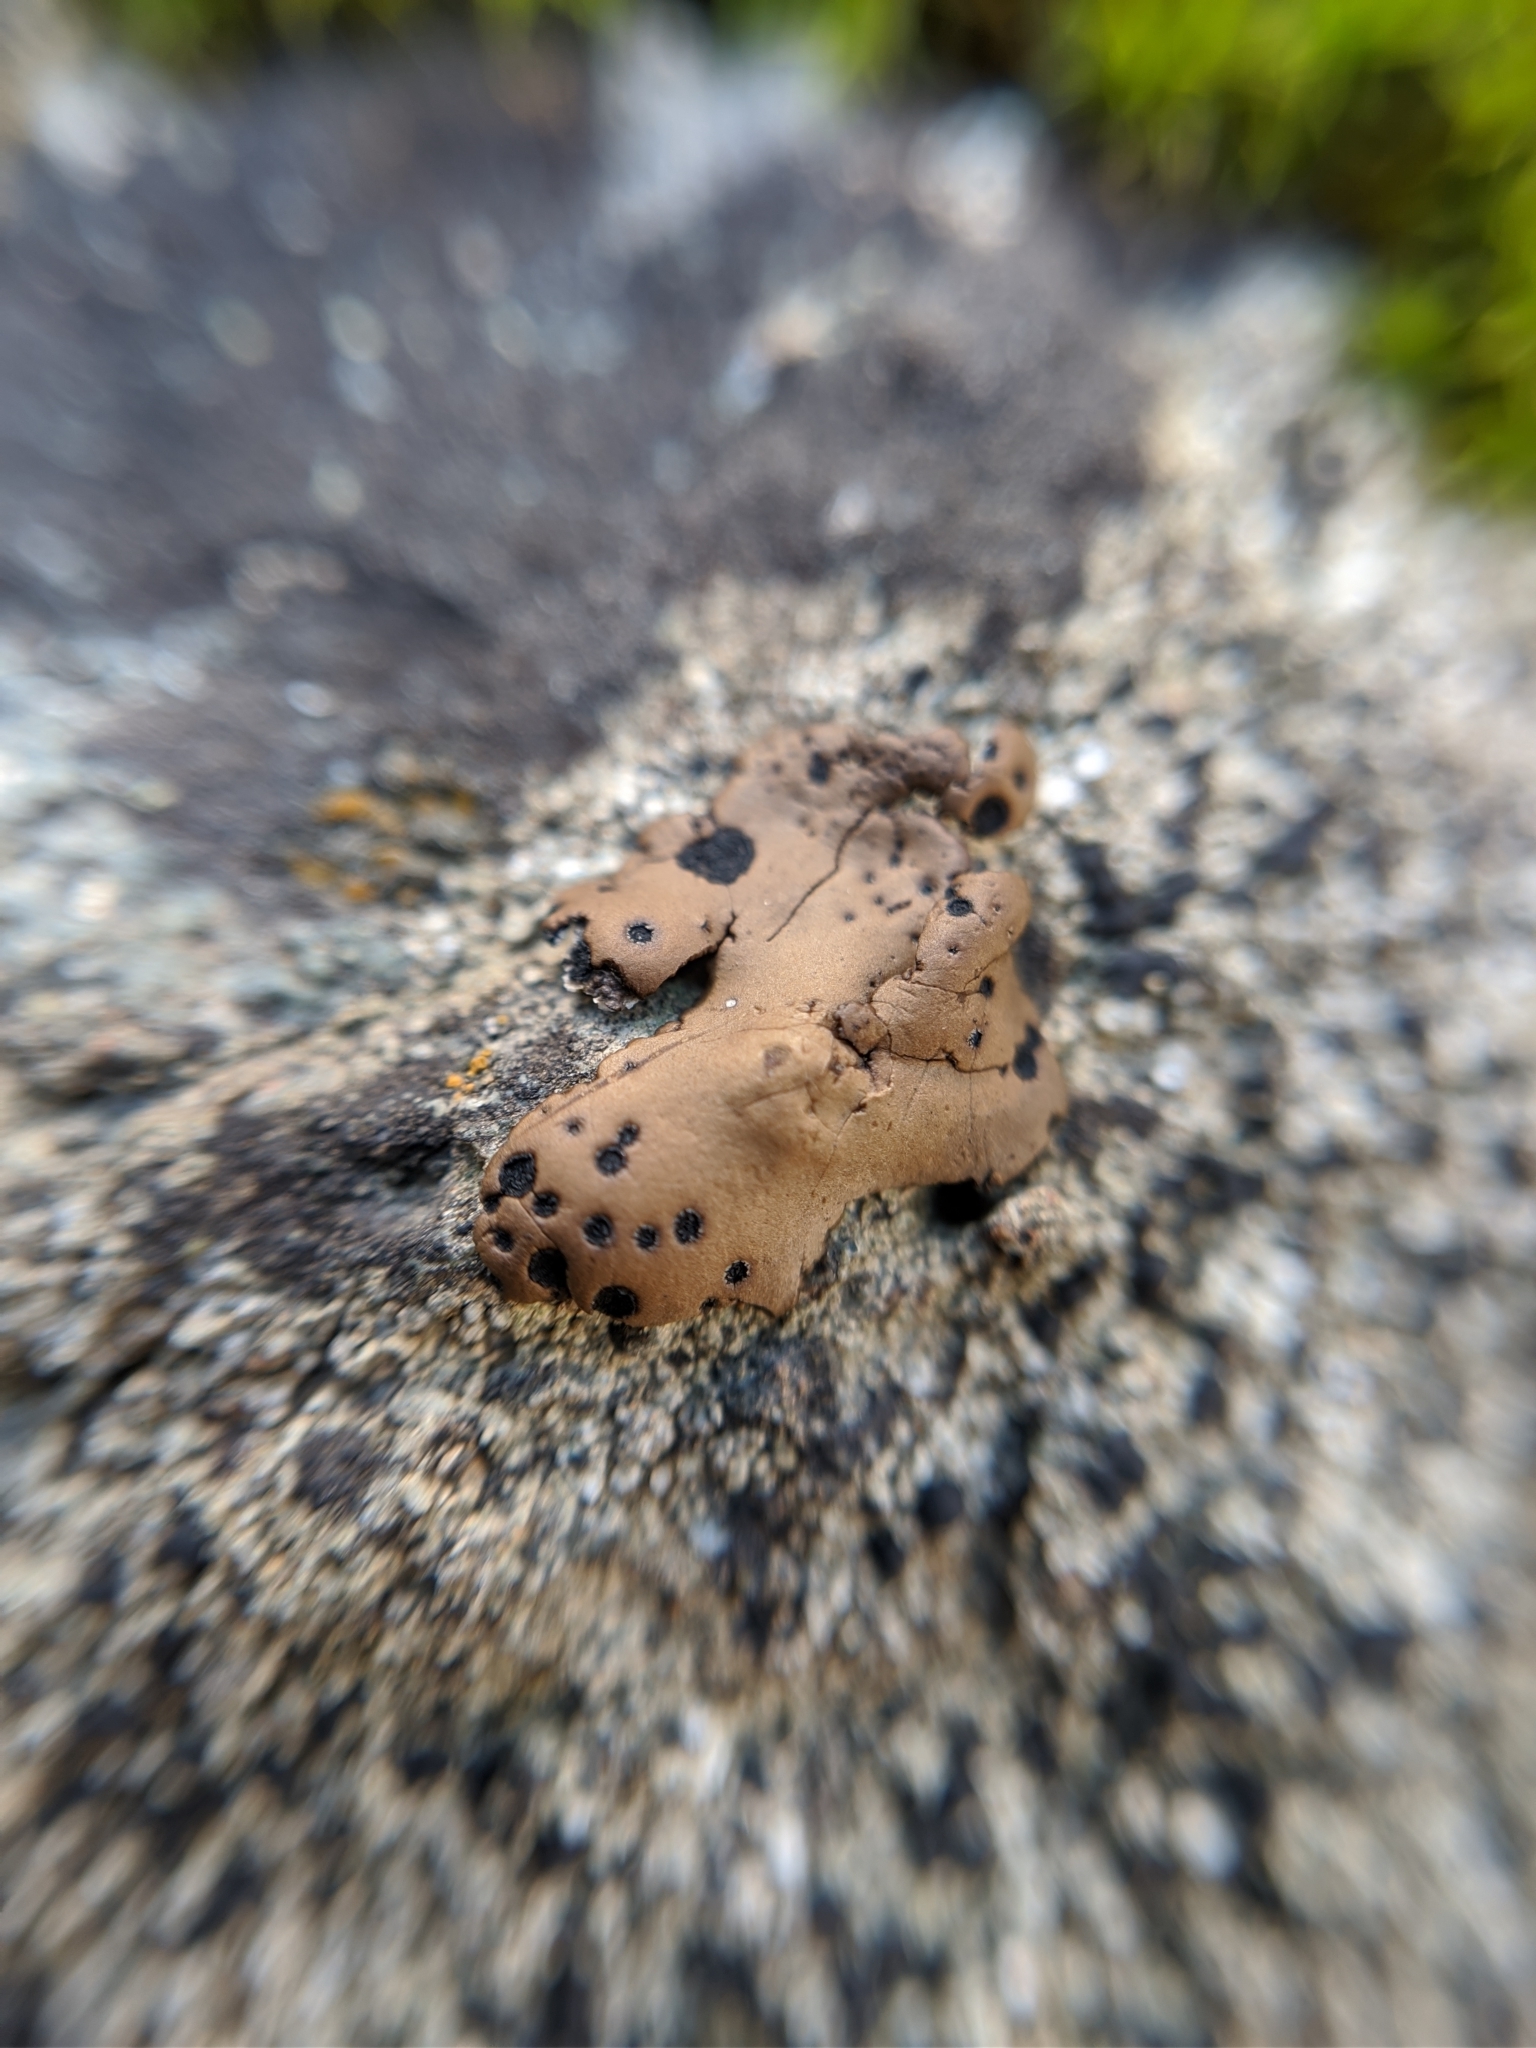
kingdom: Fungi
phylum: Ascomycota
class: Lecanoromycetes
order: Umbilicariales
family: Umbilicariaceae
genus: Umbilicaria
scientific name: Umbilicaria phaea
